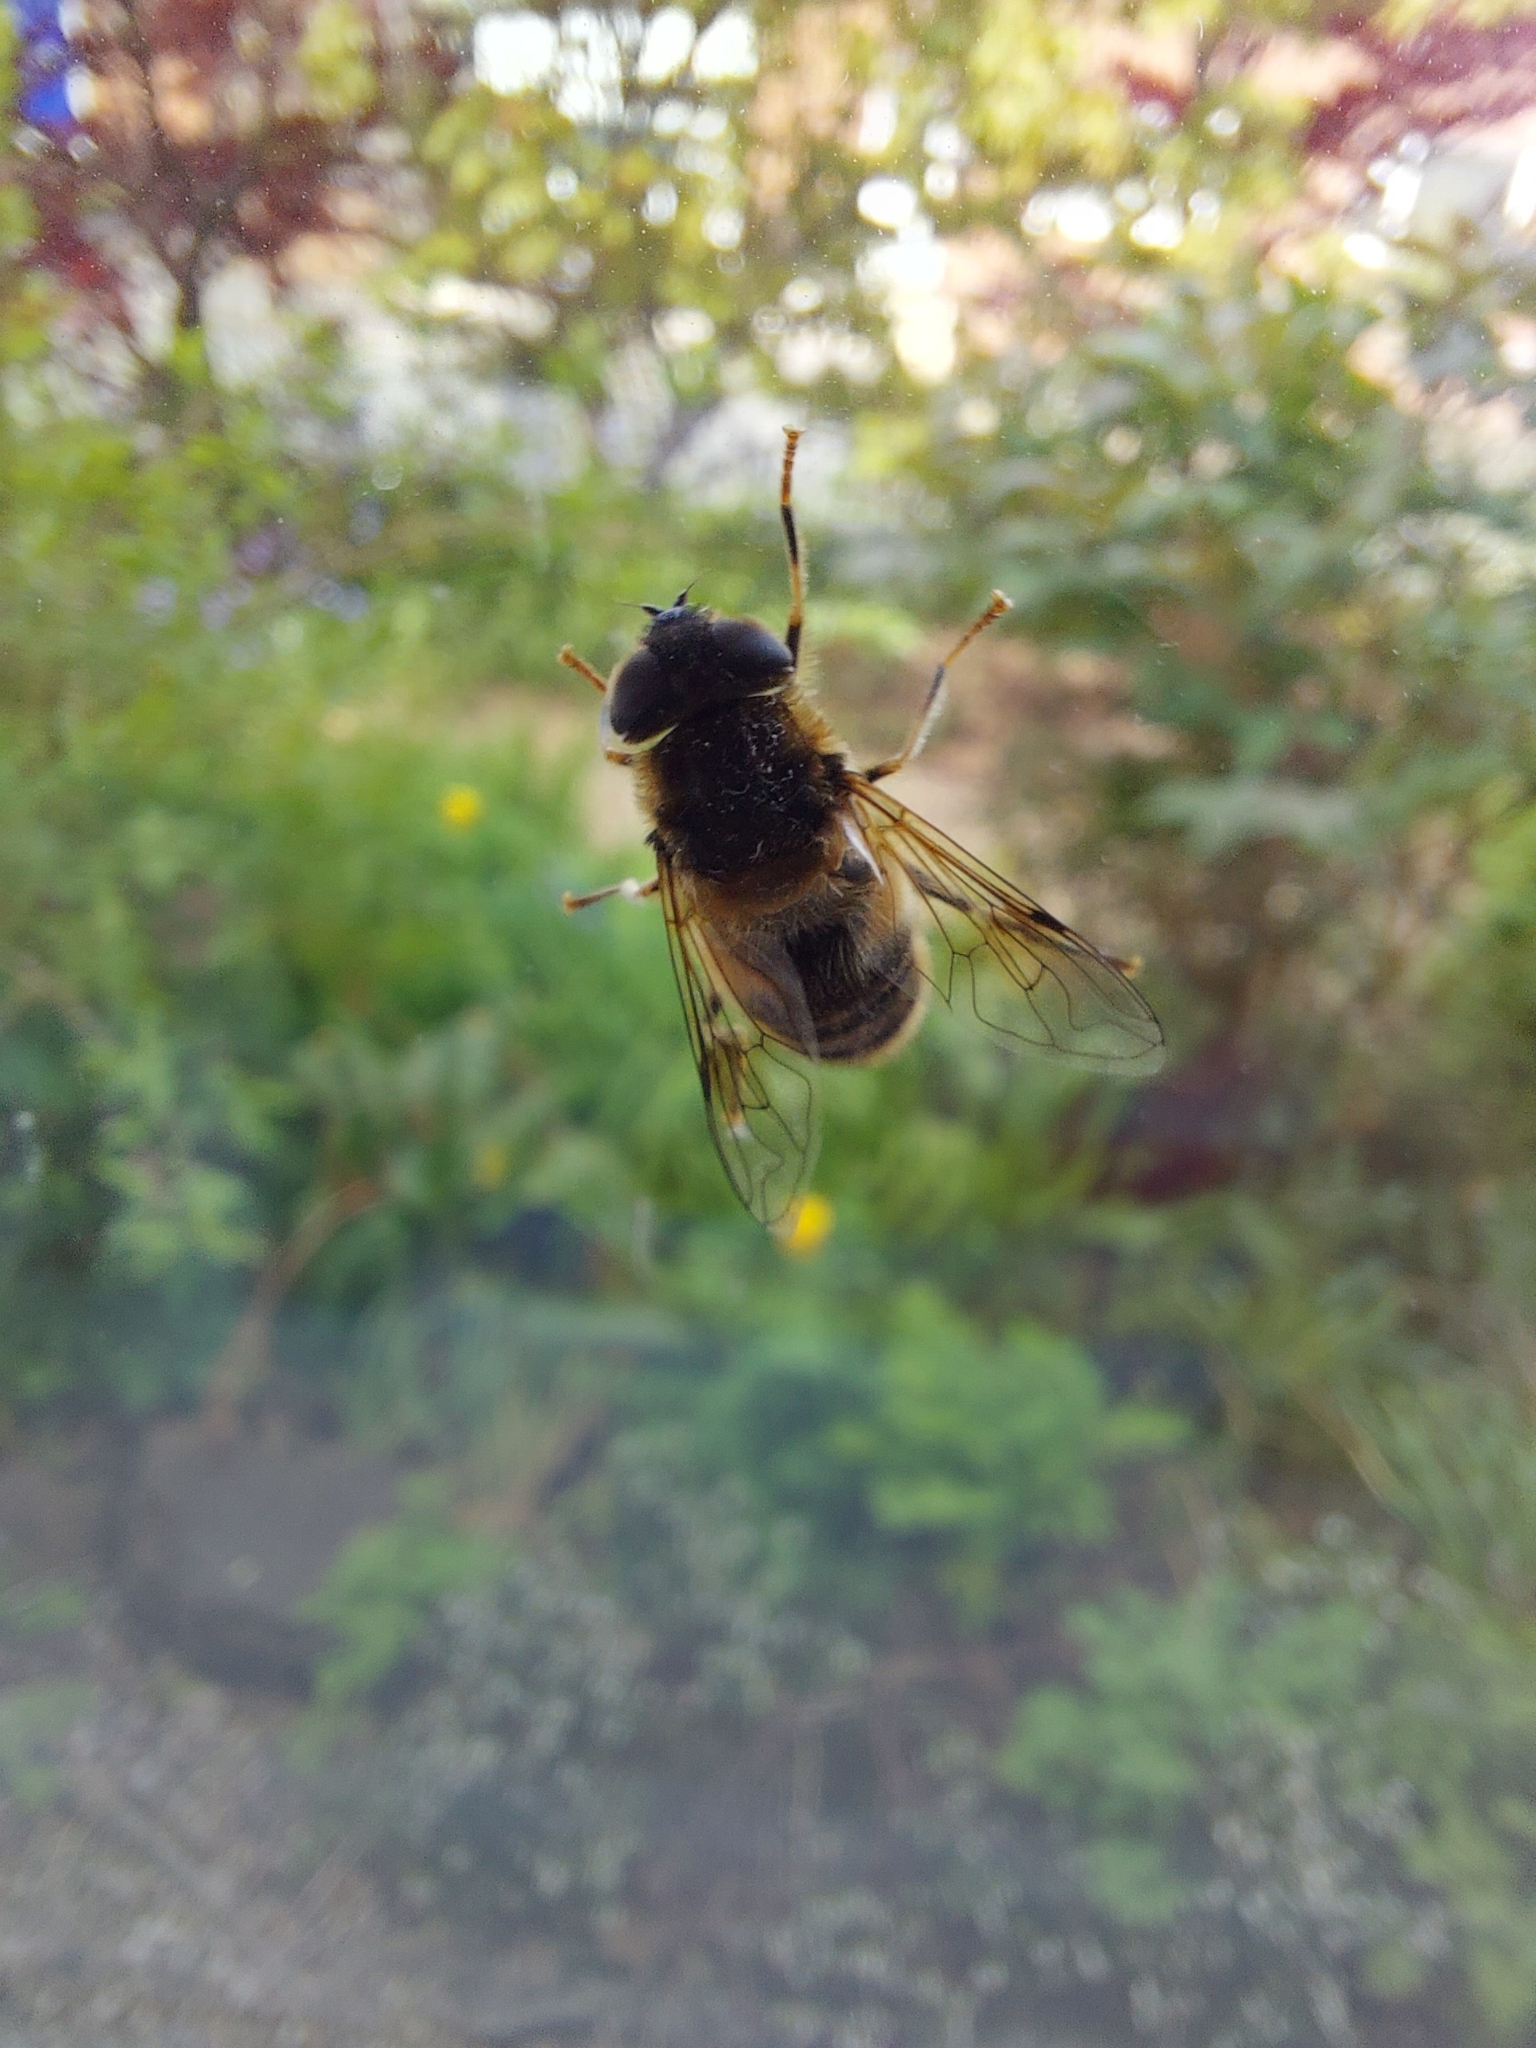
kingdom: Animalia
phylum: Arthropoda
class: Insecta
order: Diptera
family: Syrphidae
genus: Eristalis
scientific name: Eristalis pertinax
